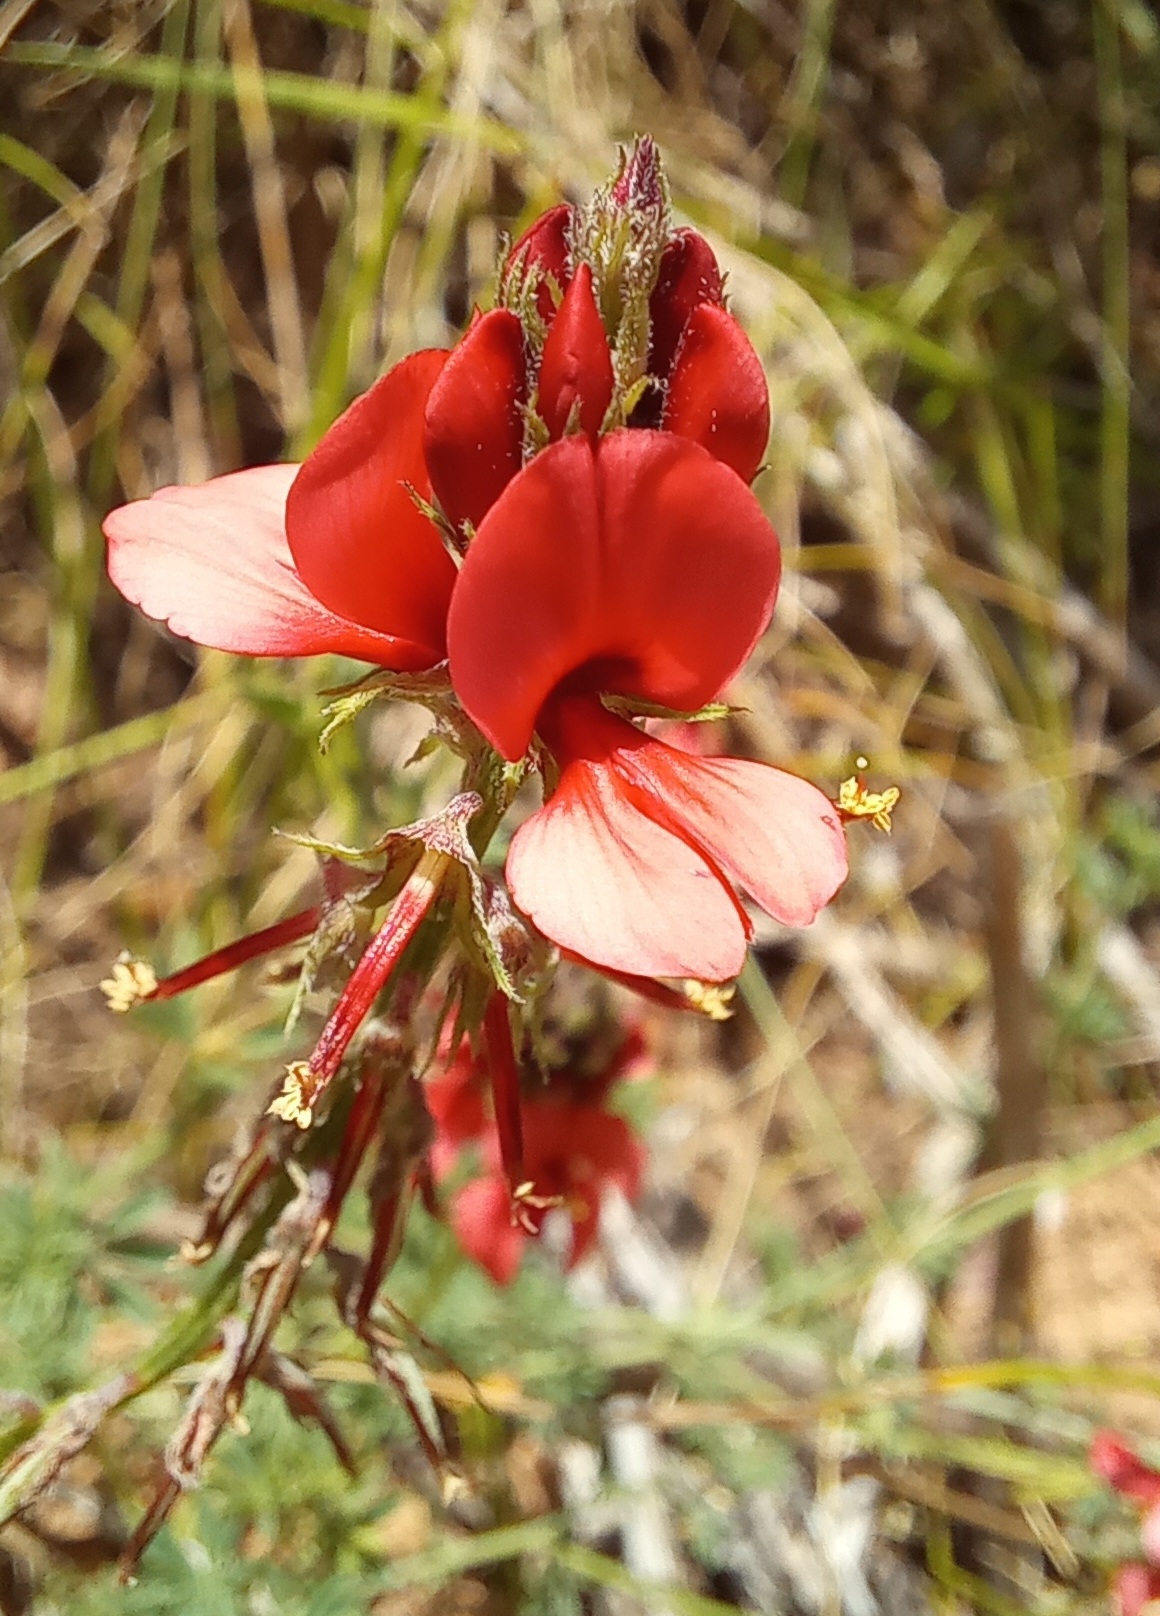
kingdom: Plantae
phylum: Tracheophyta
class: Magnoliopsida
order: Fabales
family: Fabaceae
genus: Indigofera
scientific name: Indigofera digitata
